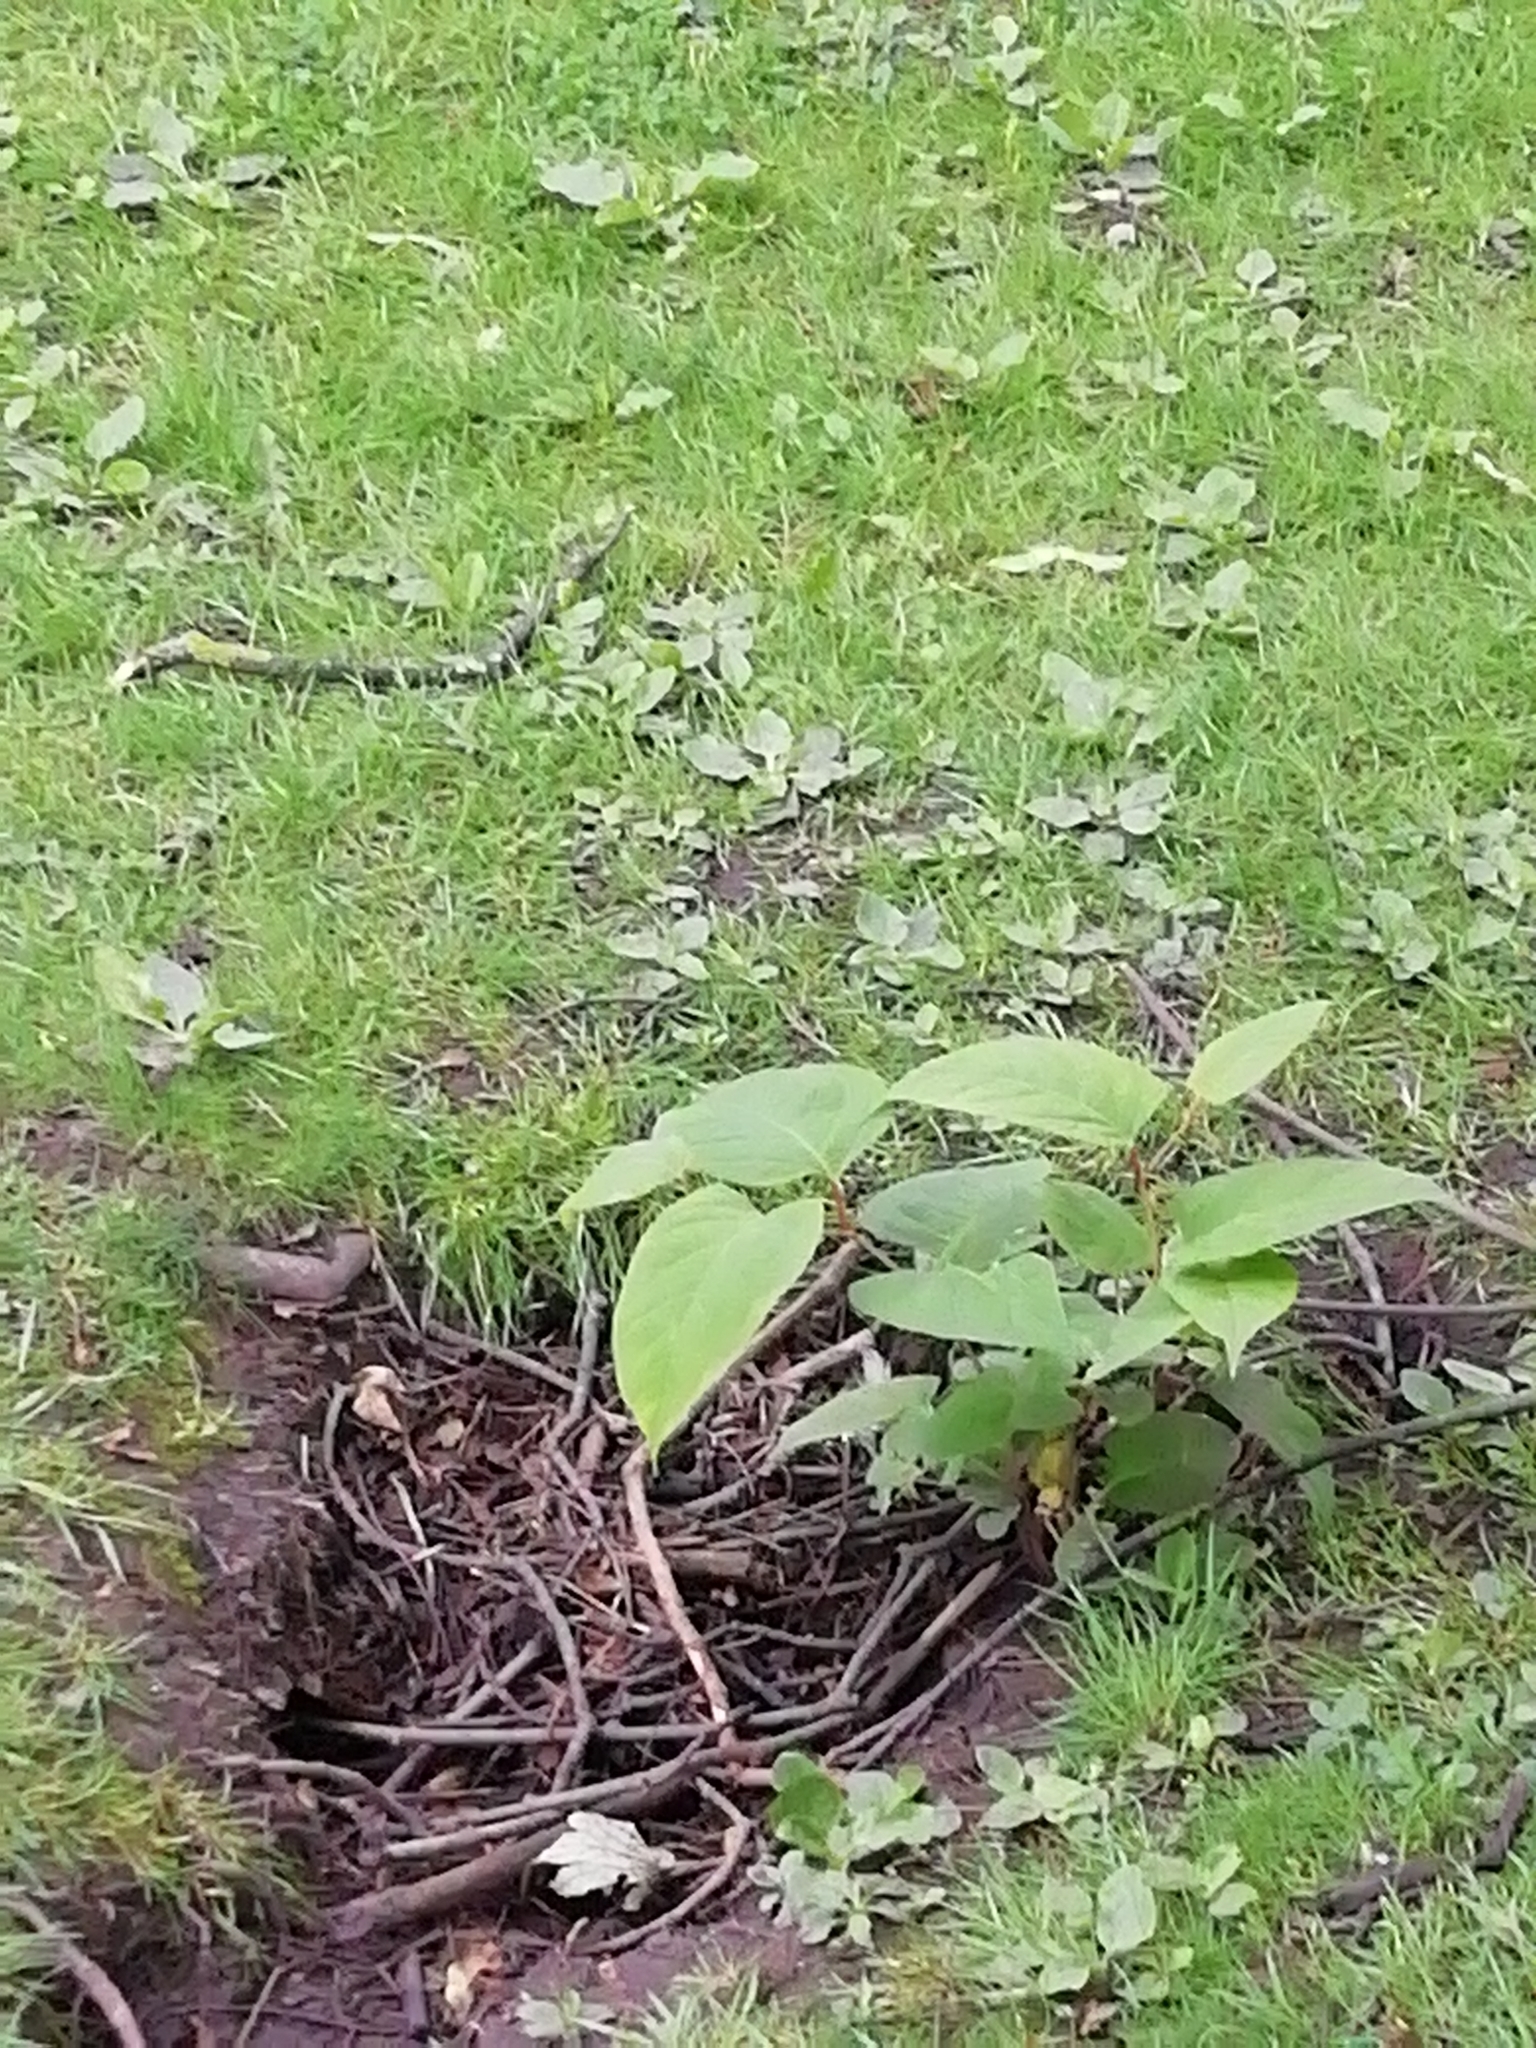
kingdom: Plantae
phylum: Tracheophyta
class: Magnoliopsida
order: Caryophyllales
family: Polygonaceae
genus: Reynoutria
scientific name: Reynoutria japonica
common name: Japanese knotweed
